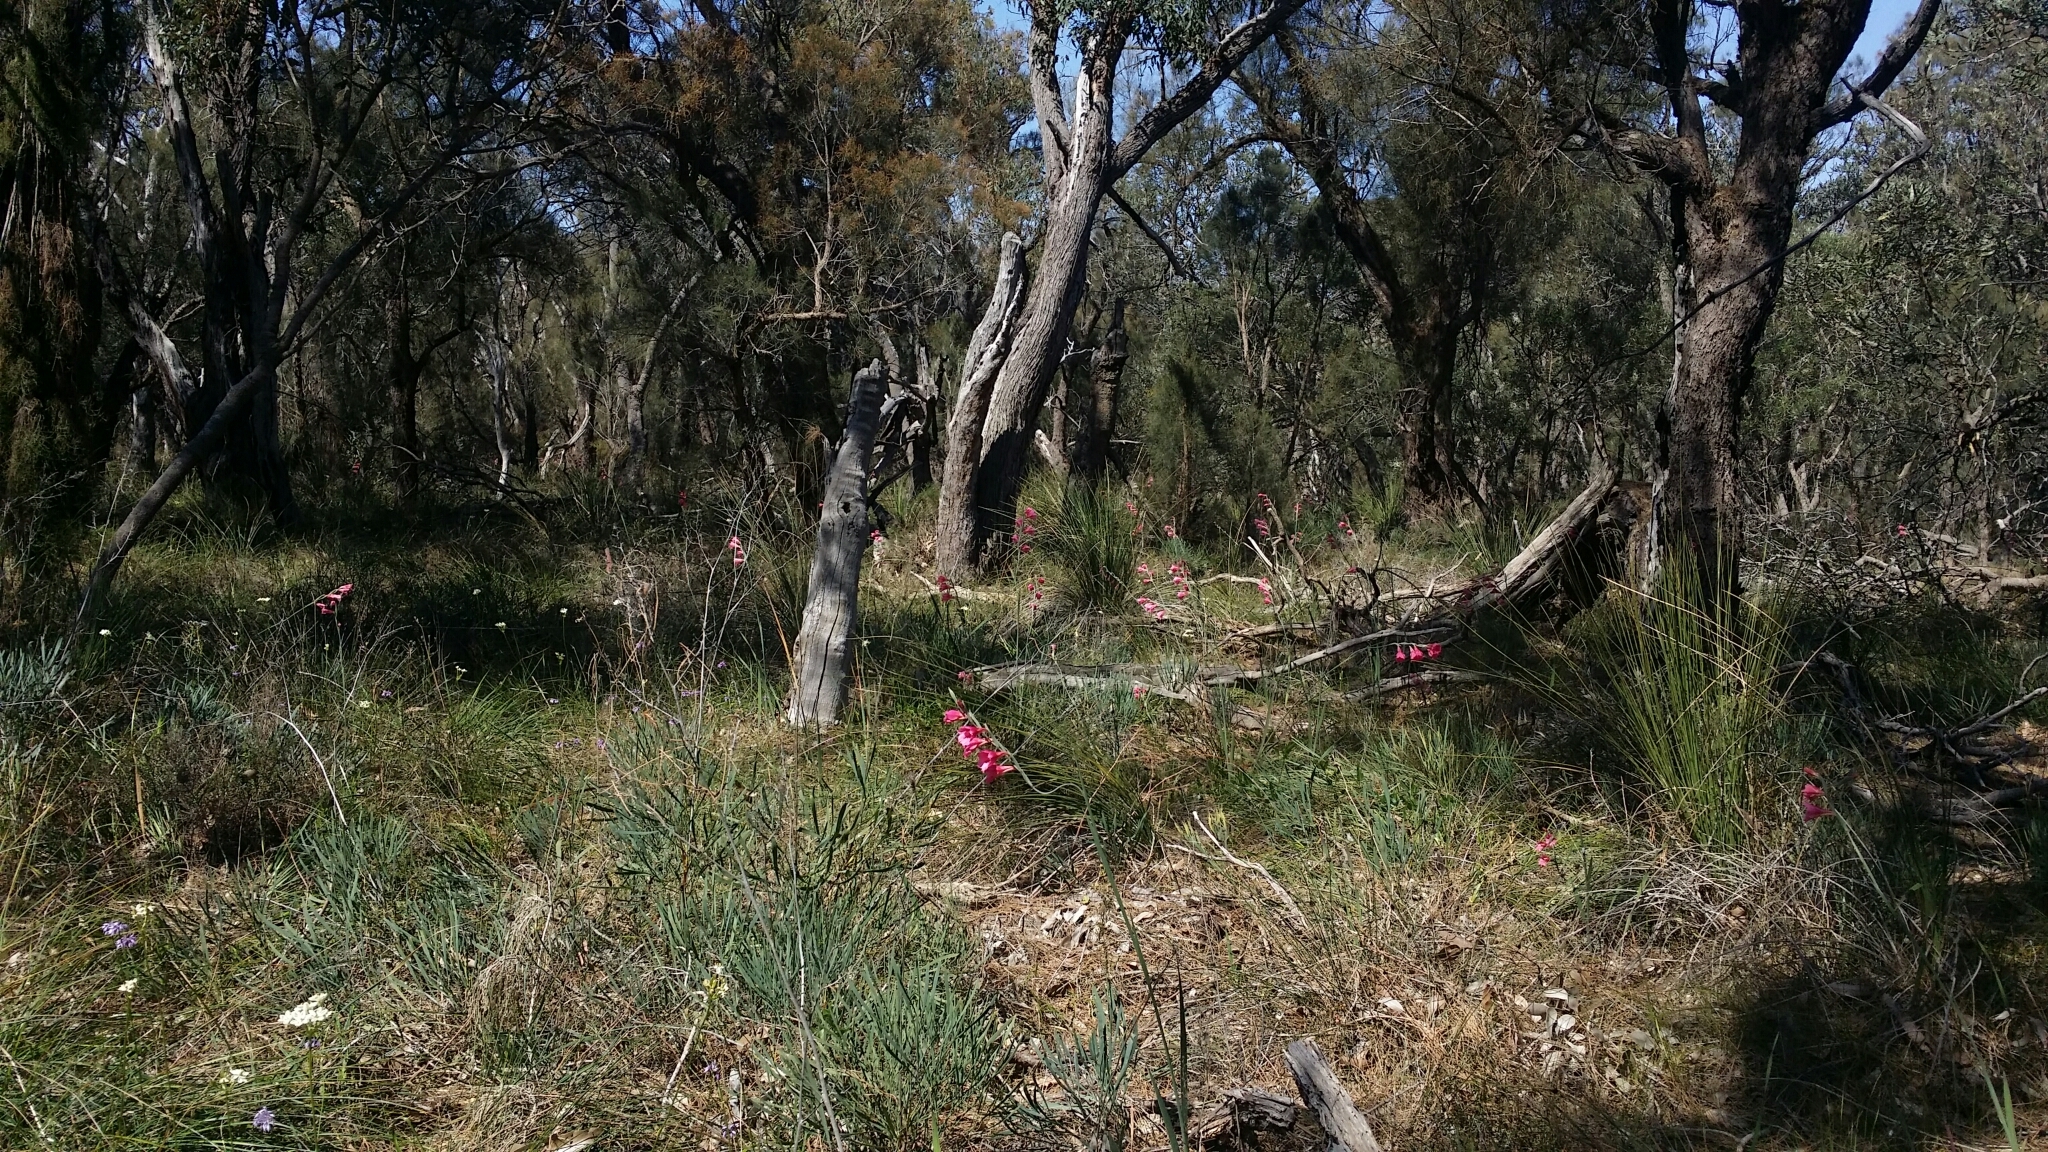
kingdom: Plantae
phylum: Tracheophyta
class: Liliopsida
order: Asparagales
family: Iridaceae
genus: Gladiolus
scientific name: Gladiolus caryophyllaceus
